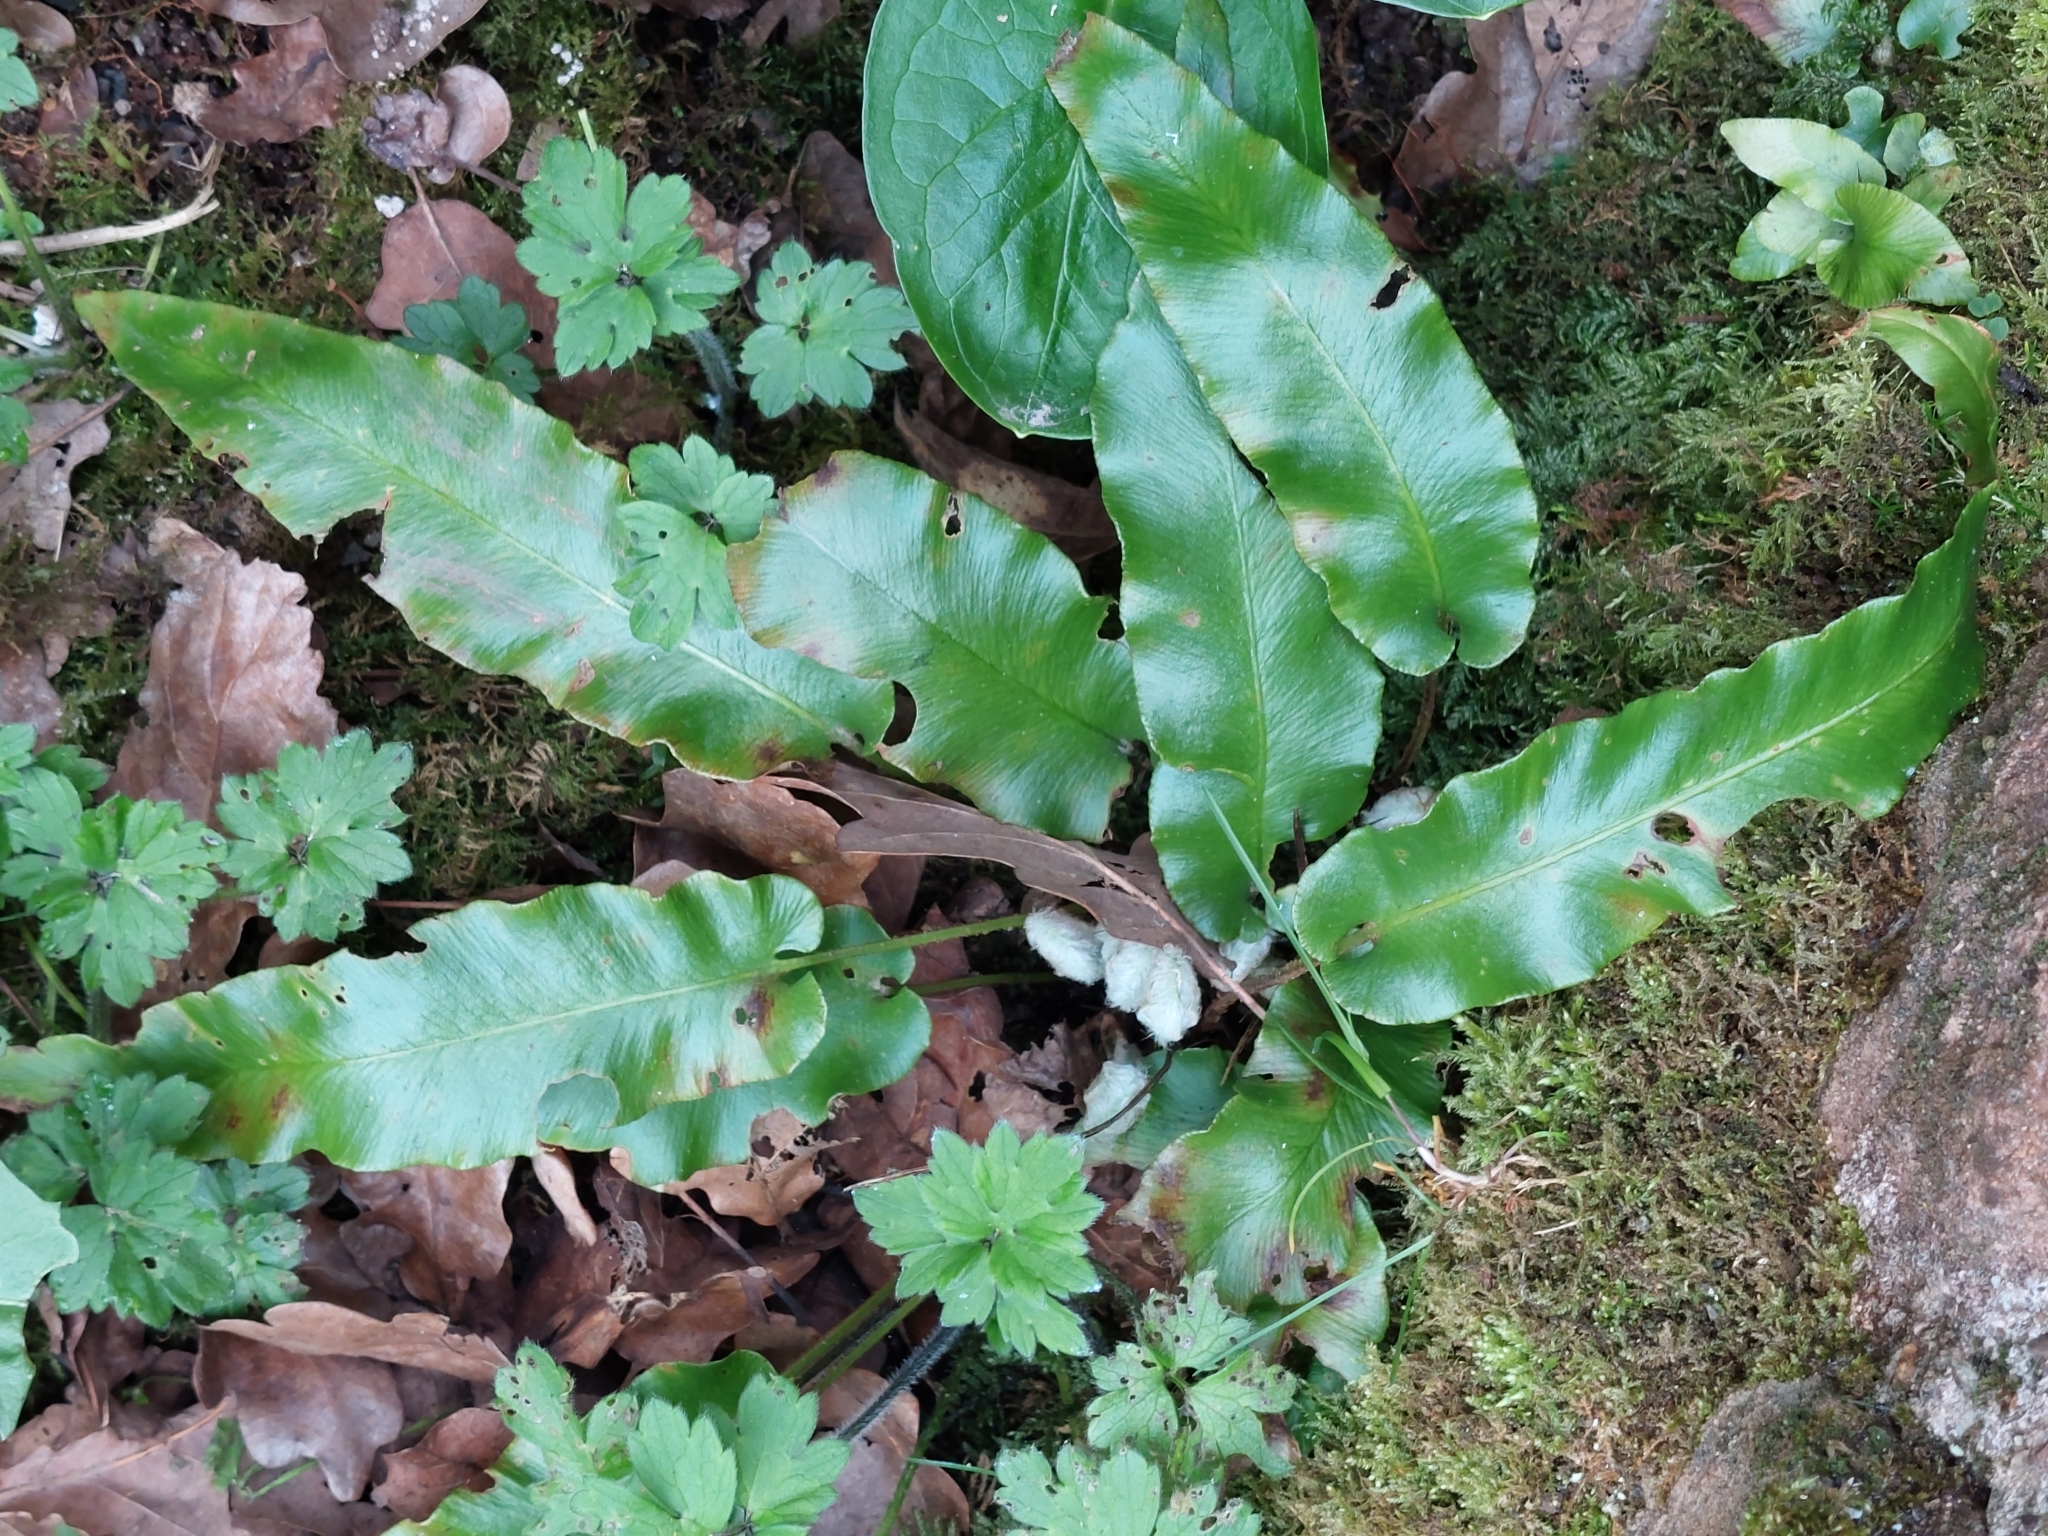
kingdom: Plantae
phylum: Tracheophyta
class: Polypodiopsida
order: Polypodiales
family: Aspleniaceae
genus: Asplenium
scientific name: Asplenium scolopendrium
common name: Hart's-tongue fern
